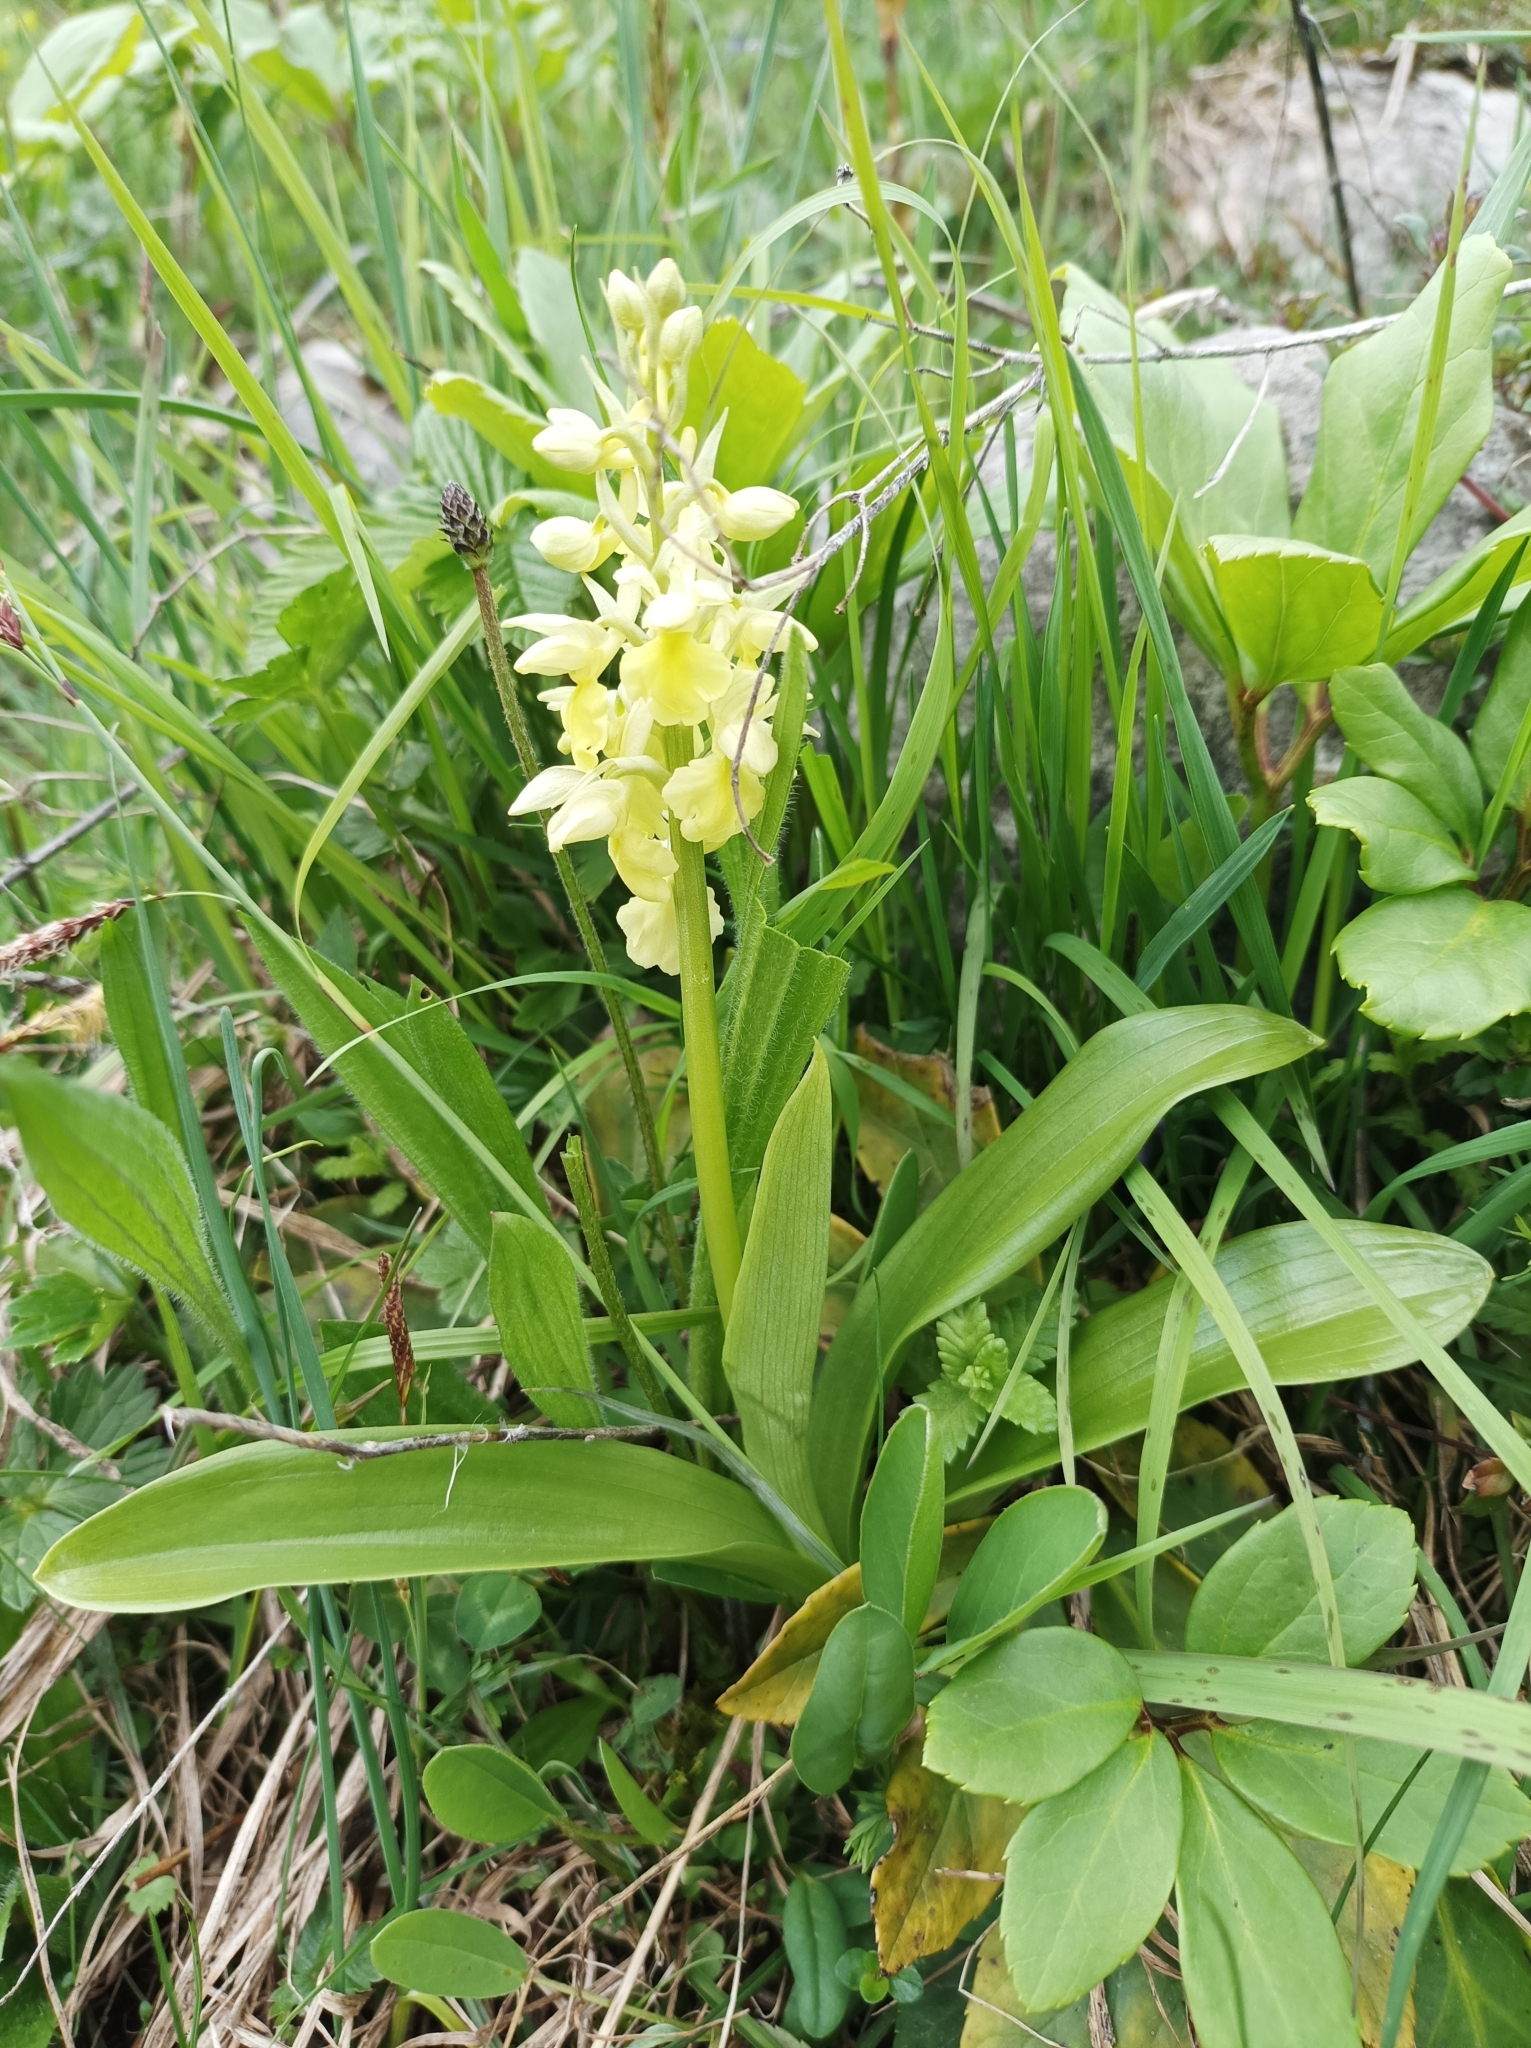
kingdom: Plantae
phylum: Tracheophyta
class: Liliopsida
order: Asparagales
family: Orchidaceae
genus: Orchis
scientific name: Orchis pallens
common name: Pale-flowered orchid
